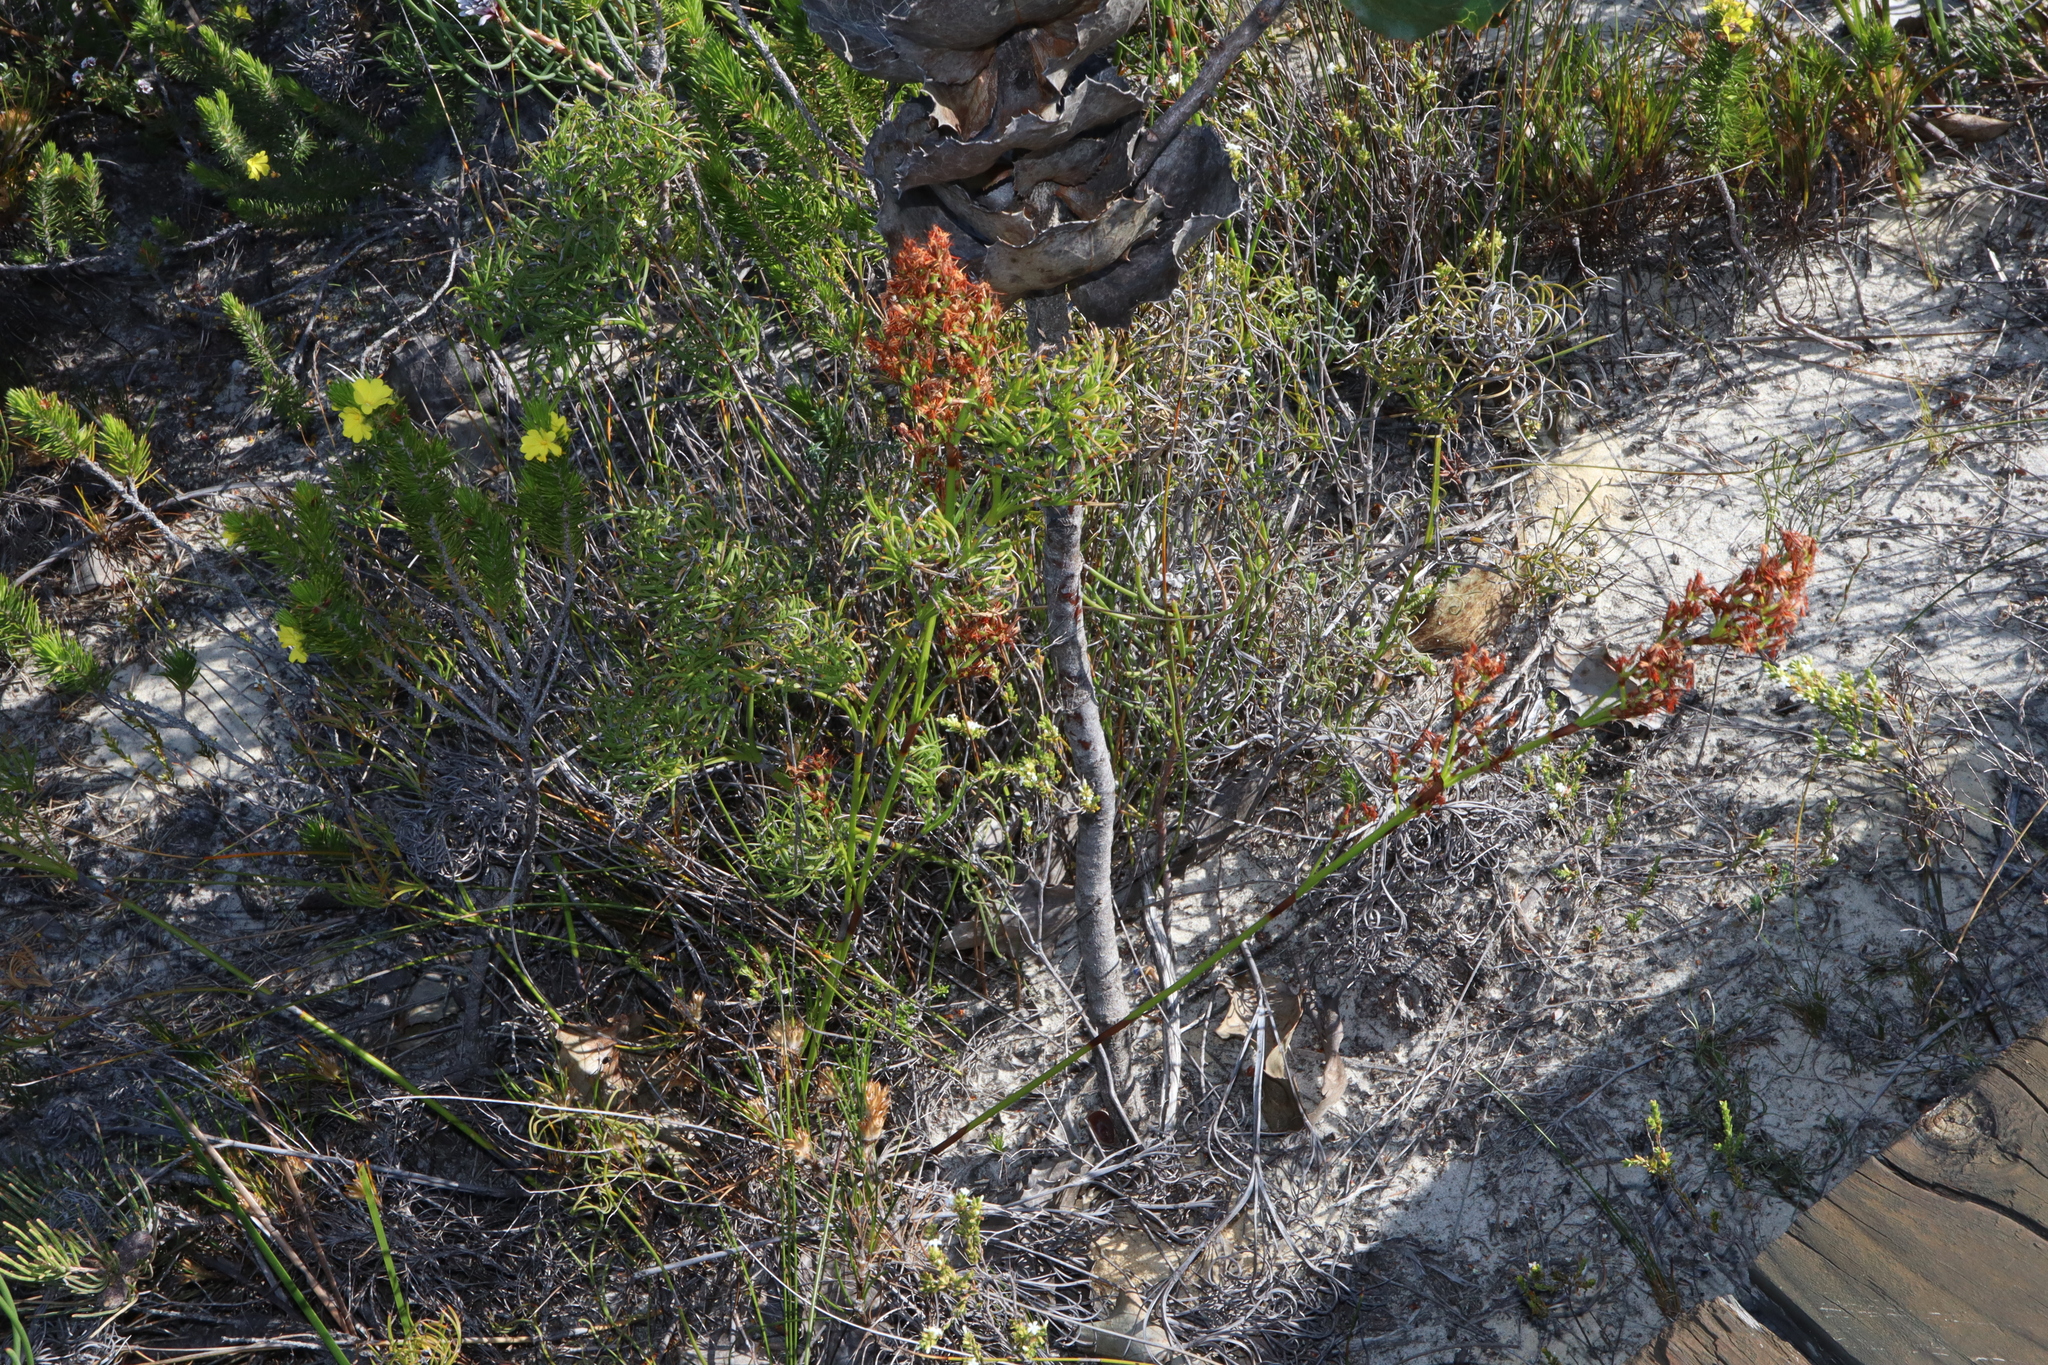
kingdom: Plantae
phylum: Tracheophyta
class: Liliopsida
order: Poales
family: Cyperaceae
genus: Caustis
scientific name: Caustis dioica
